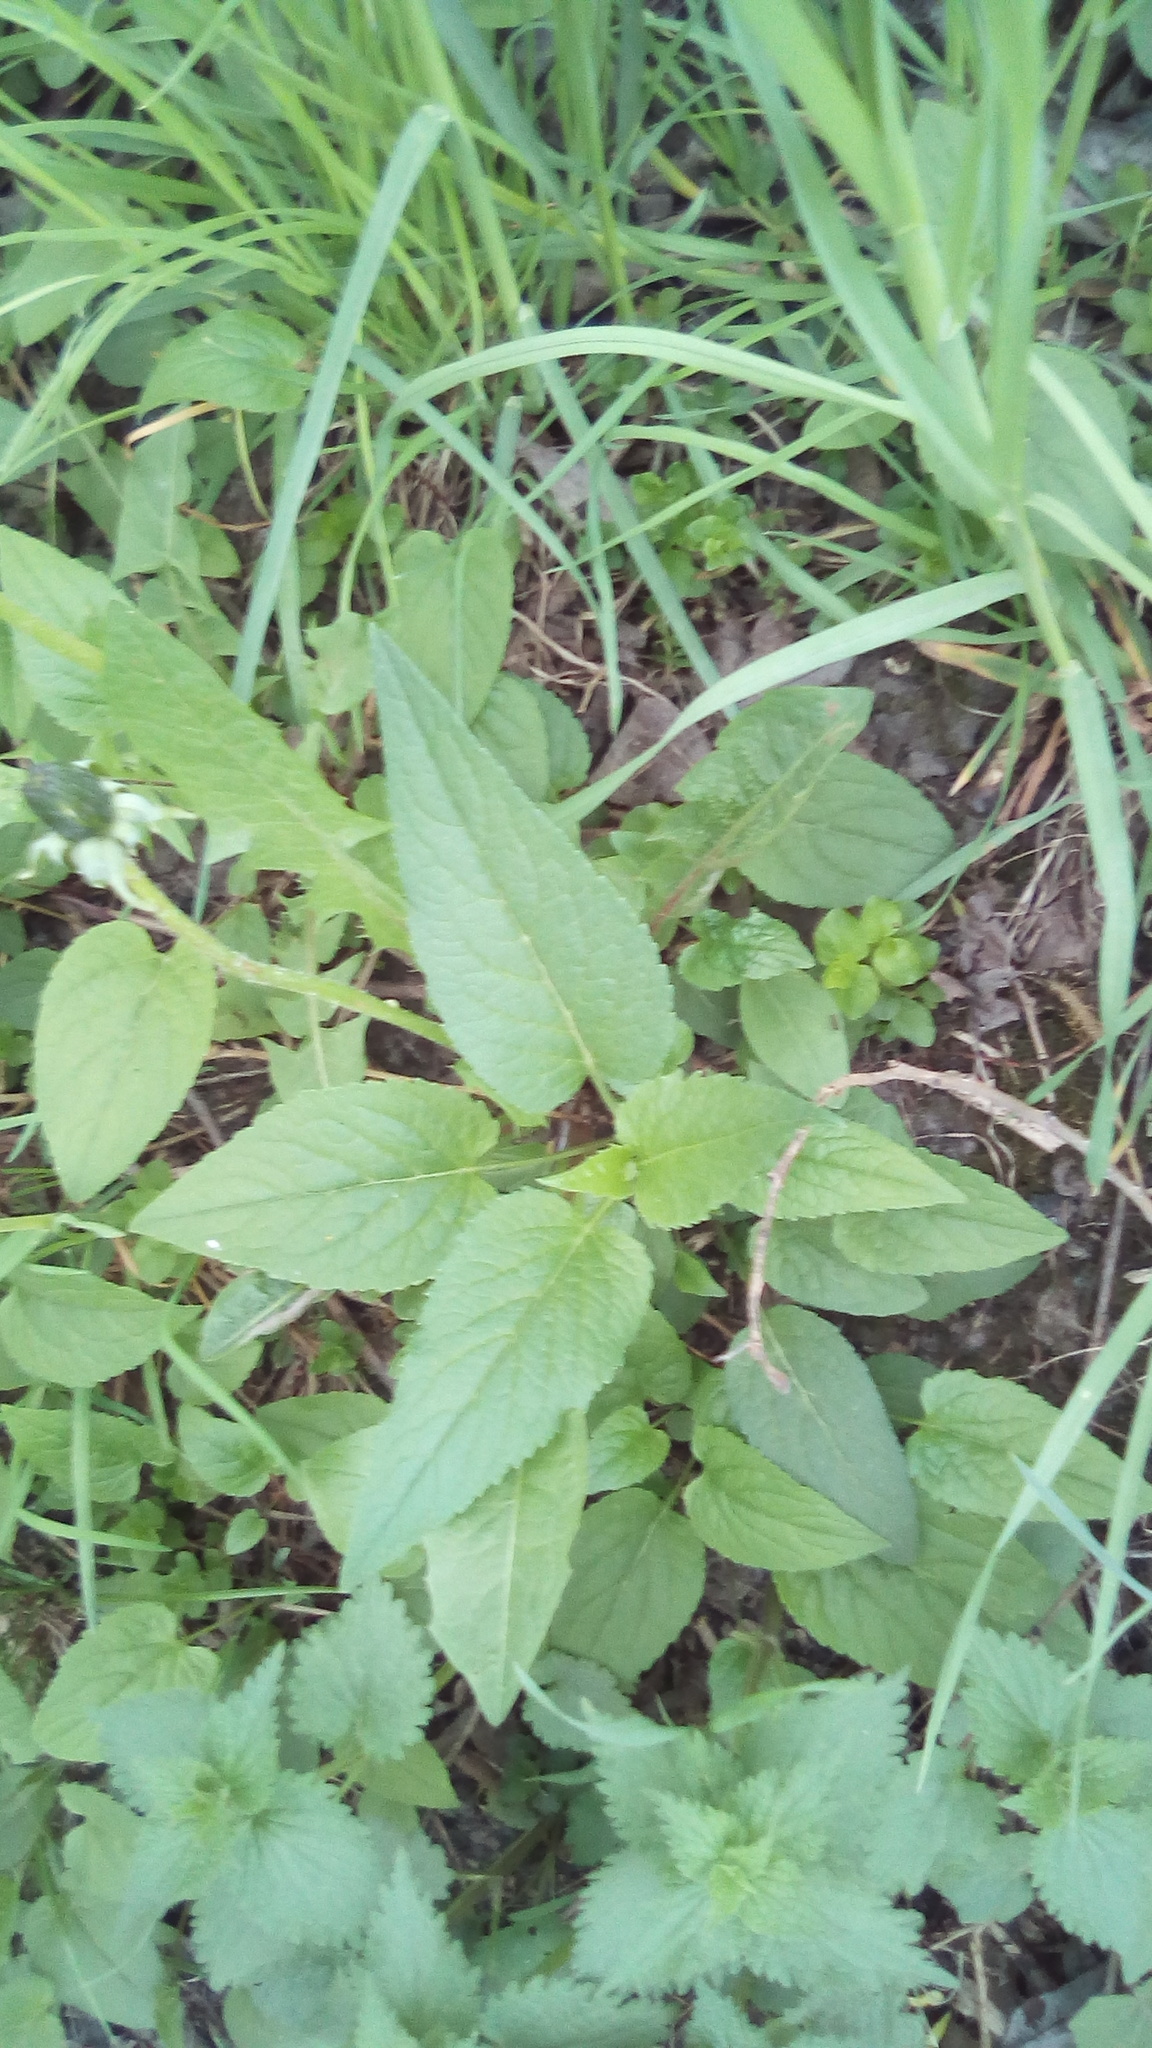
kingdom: Plantae
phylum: Tracheophyta
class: Magnoliopsida
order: Asterales
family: Campanulaceae
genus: Campanula
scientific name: Campanula rapunculoides
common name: Creeping bellflower
